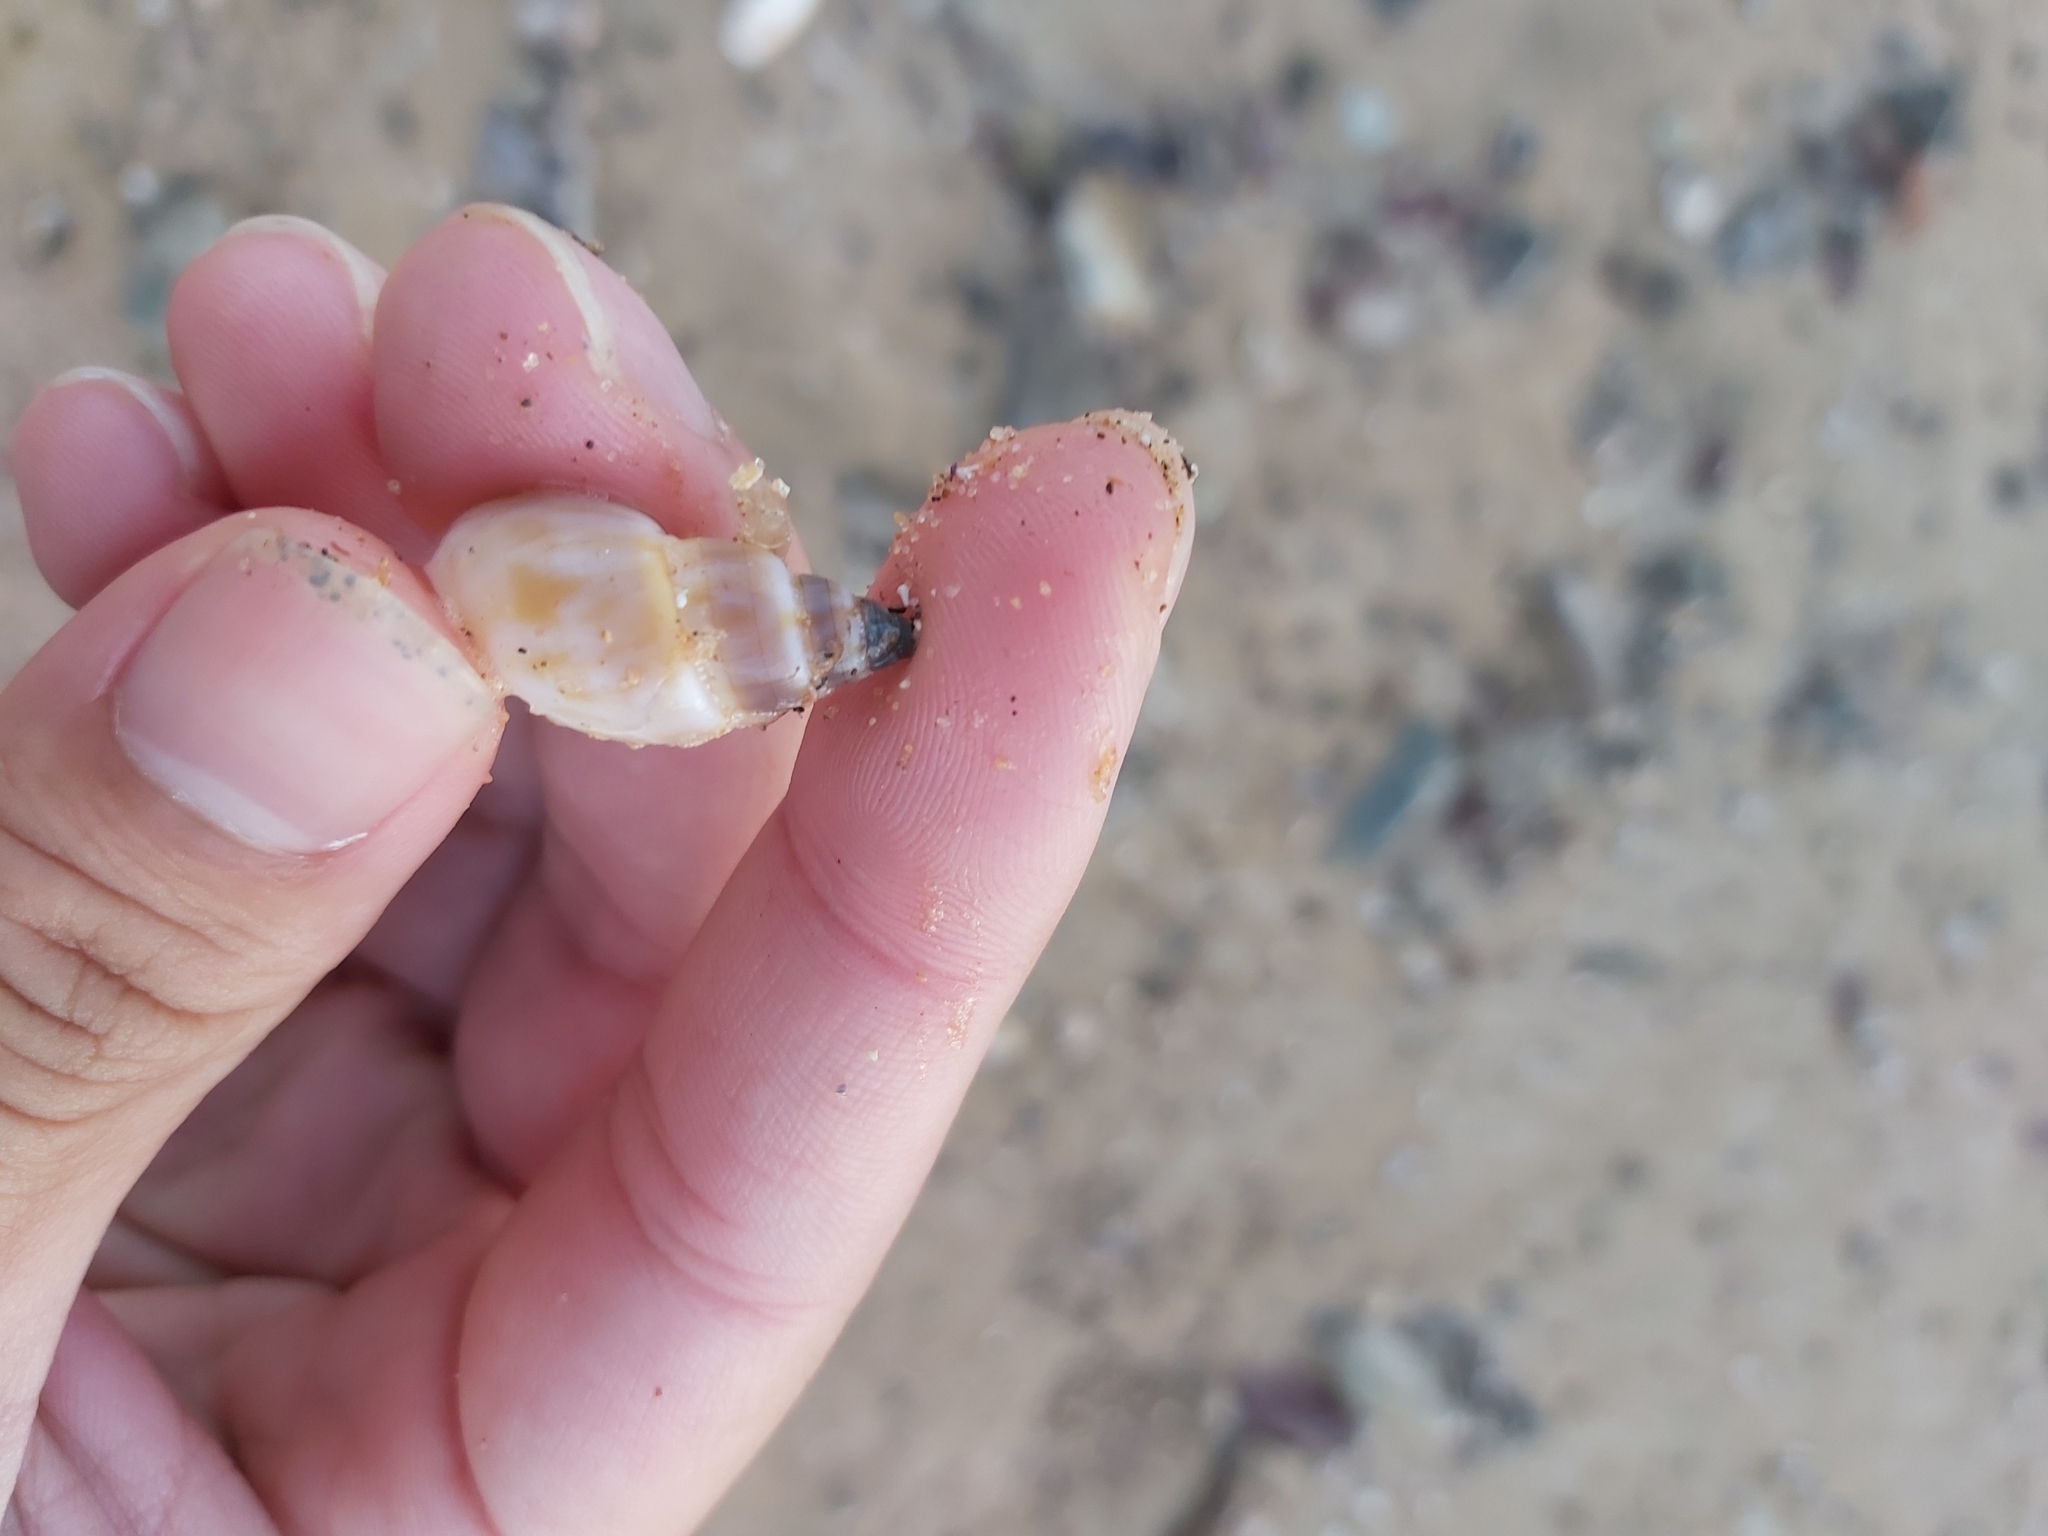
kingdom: Animalia
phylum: Mollusca
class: Gastropoda
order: Neogastropoda
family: Nassariidae
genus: Nassarius
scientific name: Nassarius particeps
